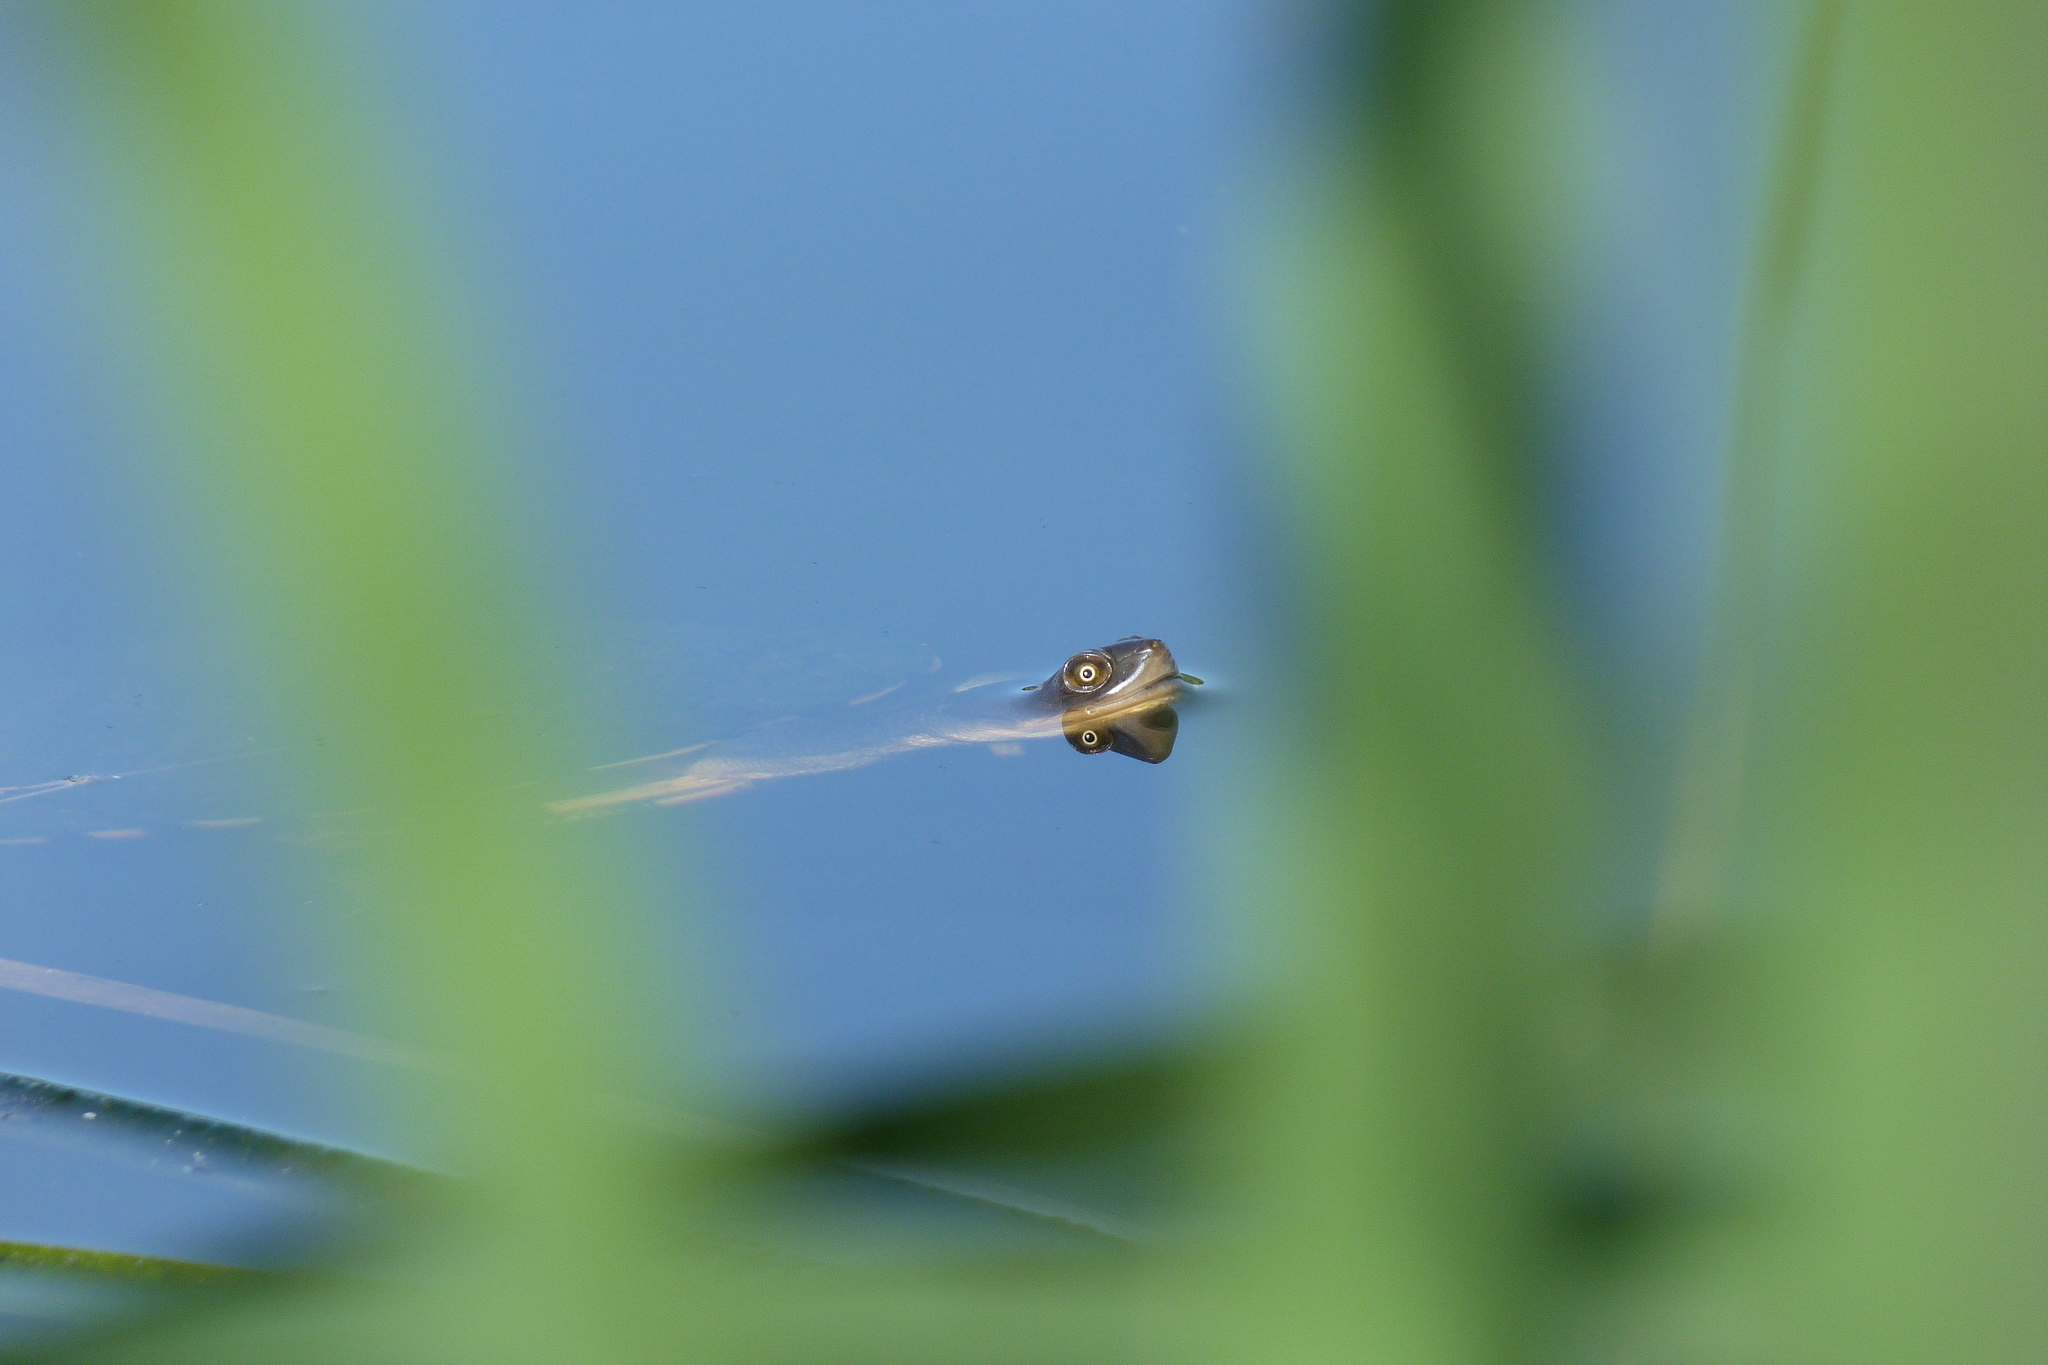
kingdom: Animalia
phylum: Chordata
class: Testudines
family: Chelidae
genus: Chelodina
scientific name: Chelodina longicollis
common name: Eastern snake-necked turtle
